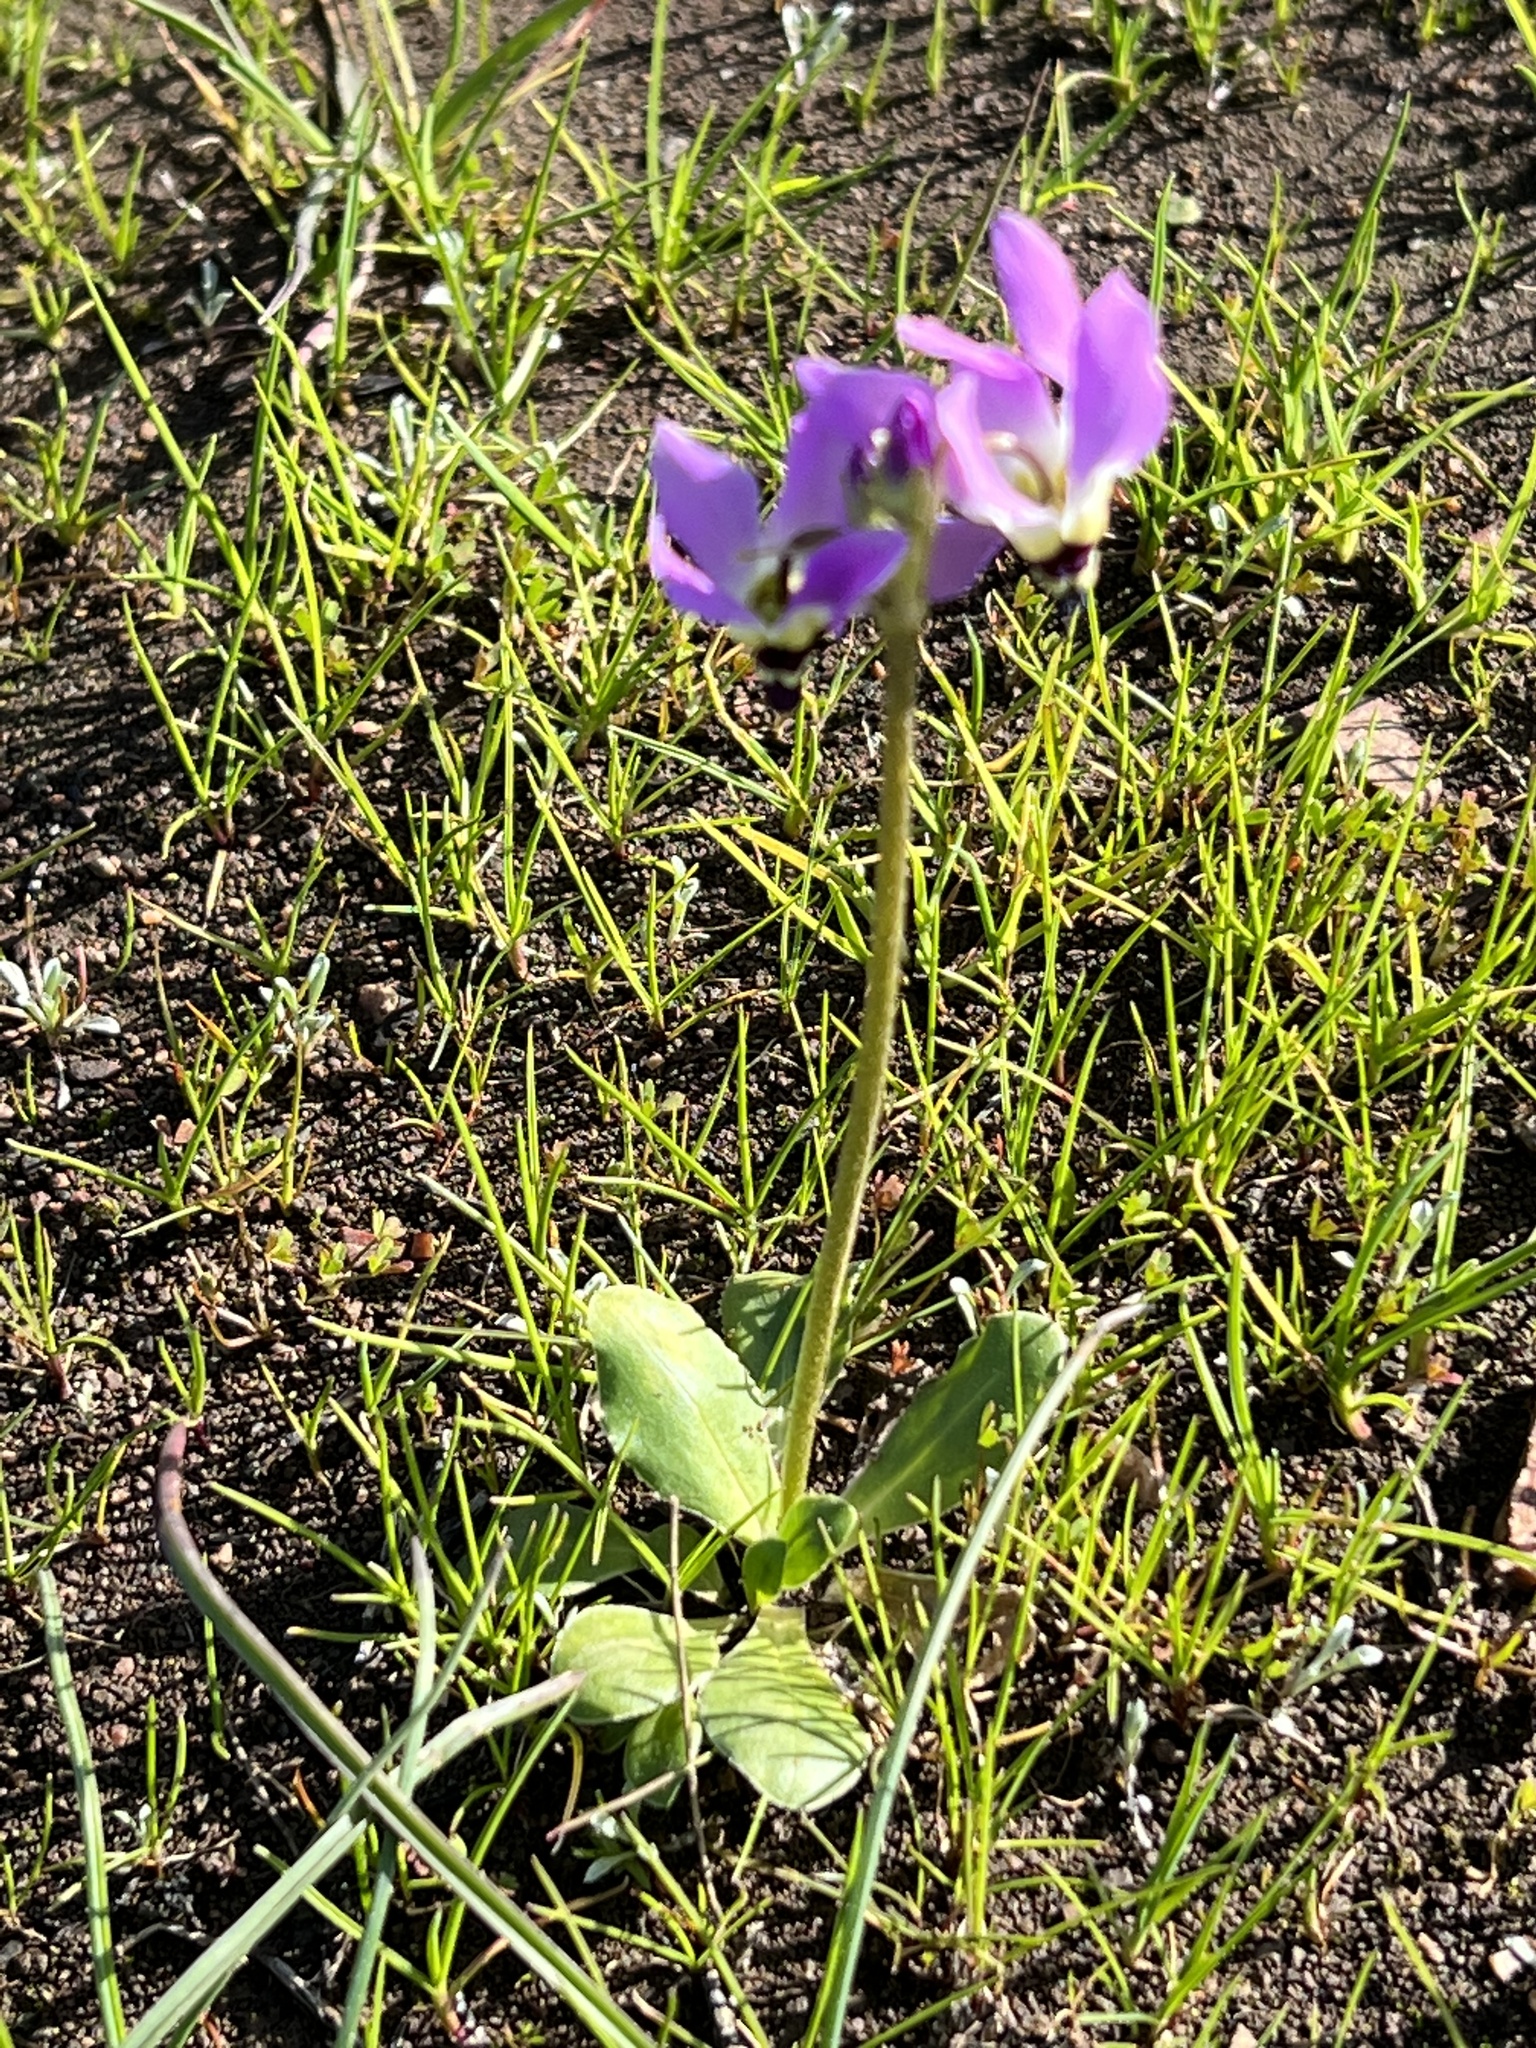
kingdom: Plantae
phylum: Tracheophyta
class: Magnoliopsida
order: Ericales
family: Primulaceae
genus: Dodecatheon
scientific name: Dodecatheon hendersonii
